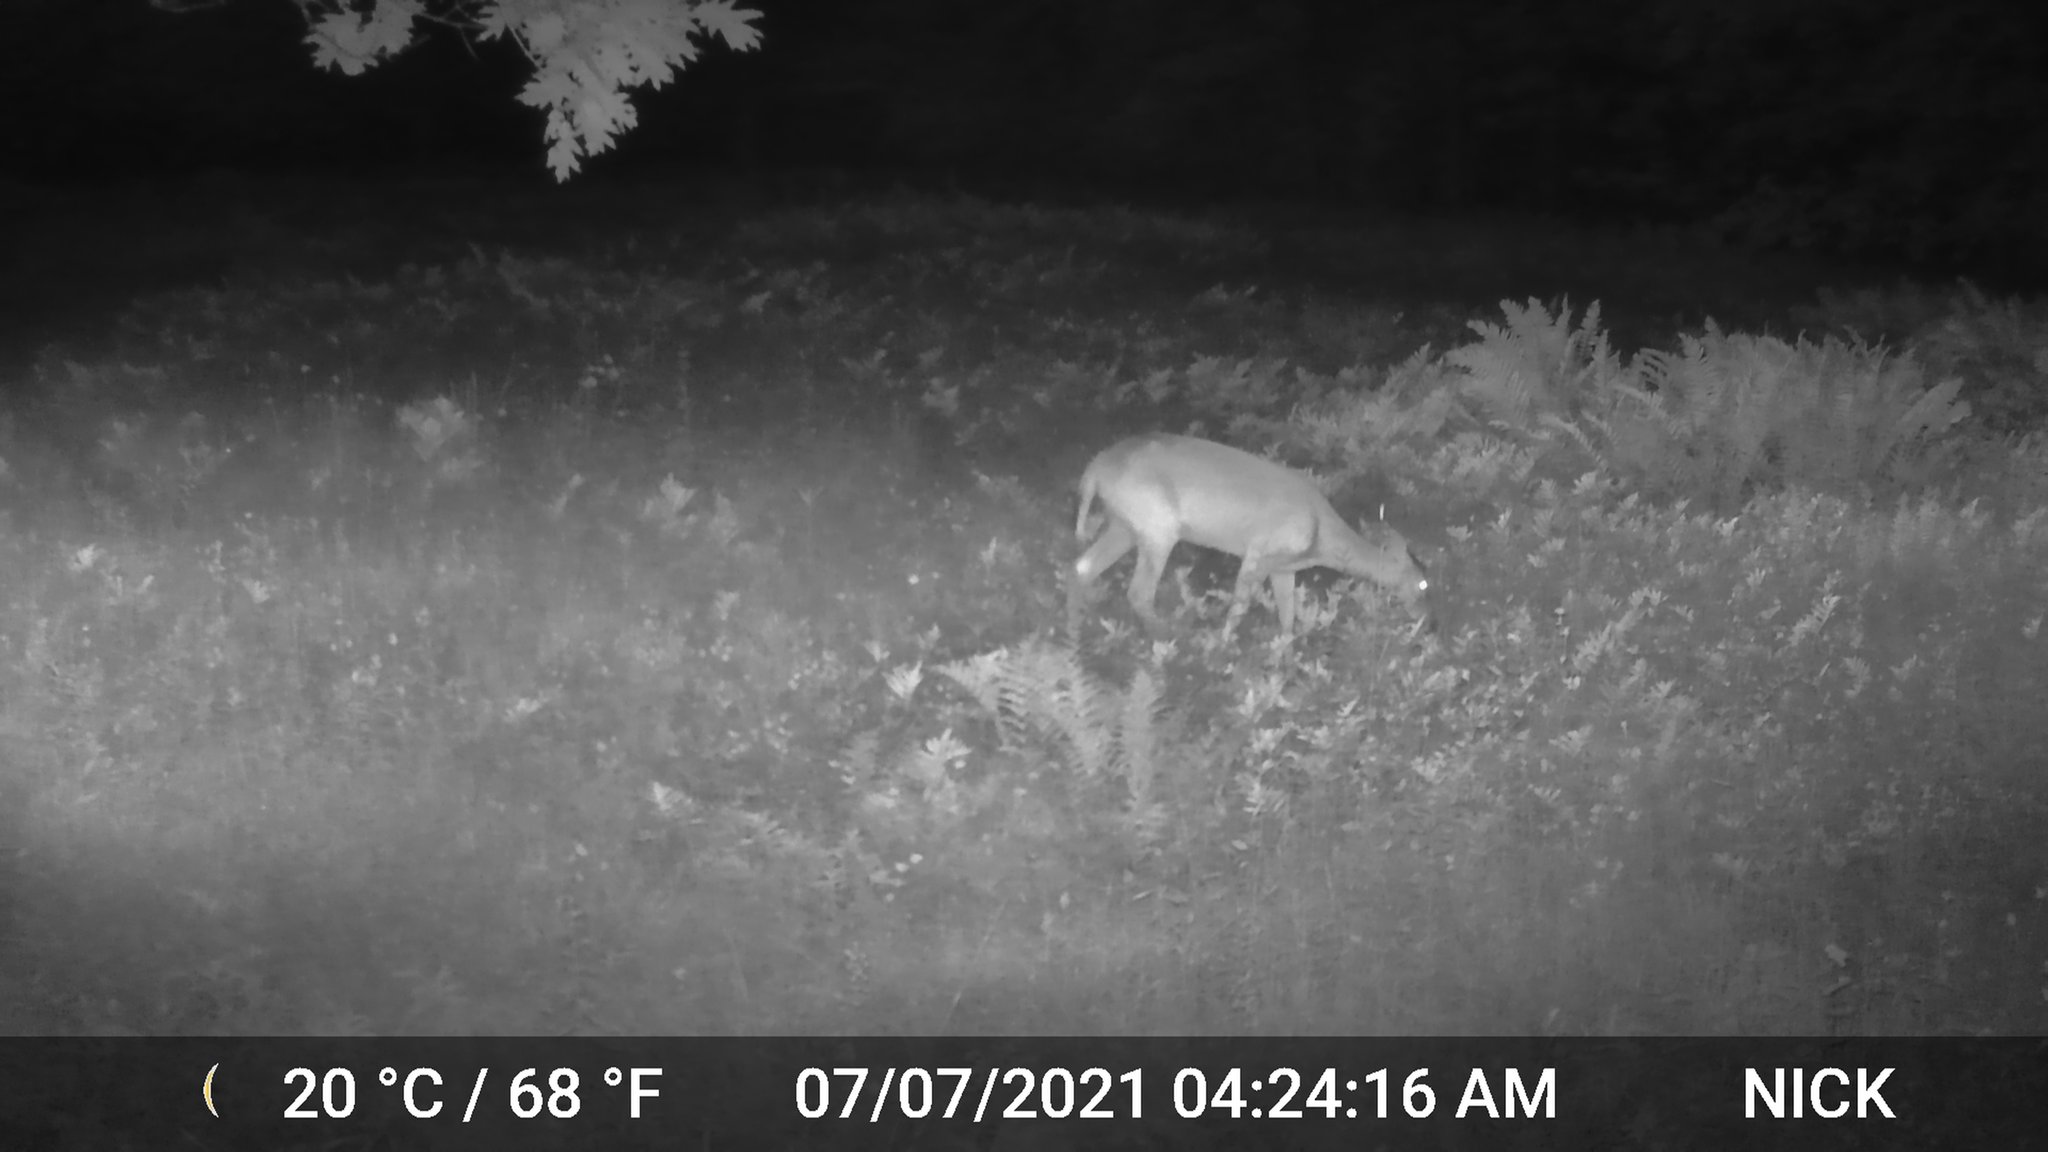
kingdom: Animalia
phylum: Chordata
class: Mammalia
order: Artiodactyla
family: Cervidae
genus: Odocoileus
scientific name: Odocoileus virginianus
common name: White-tailed deer
